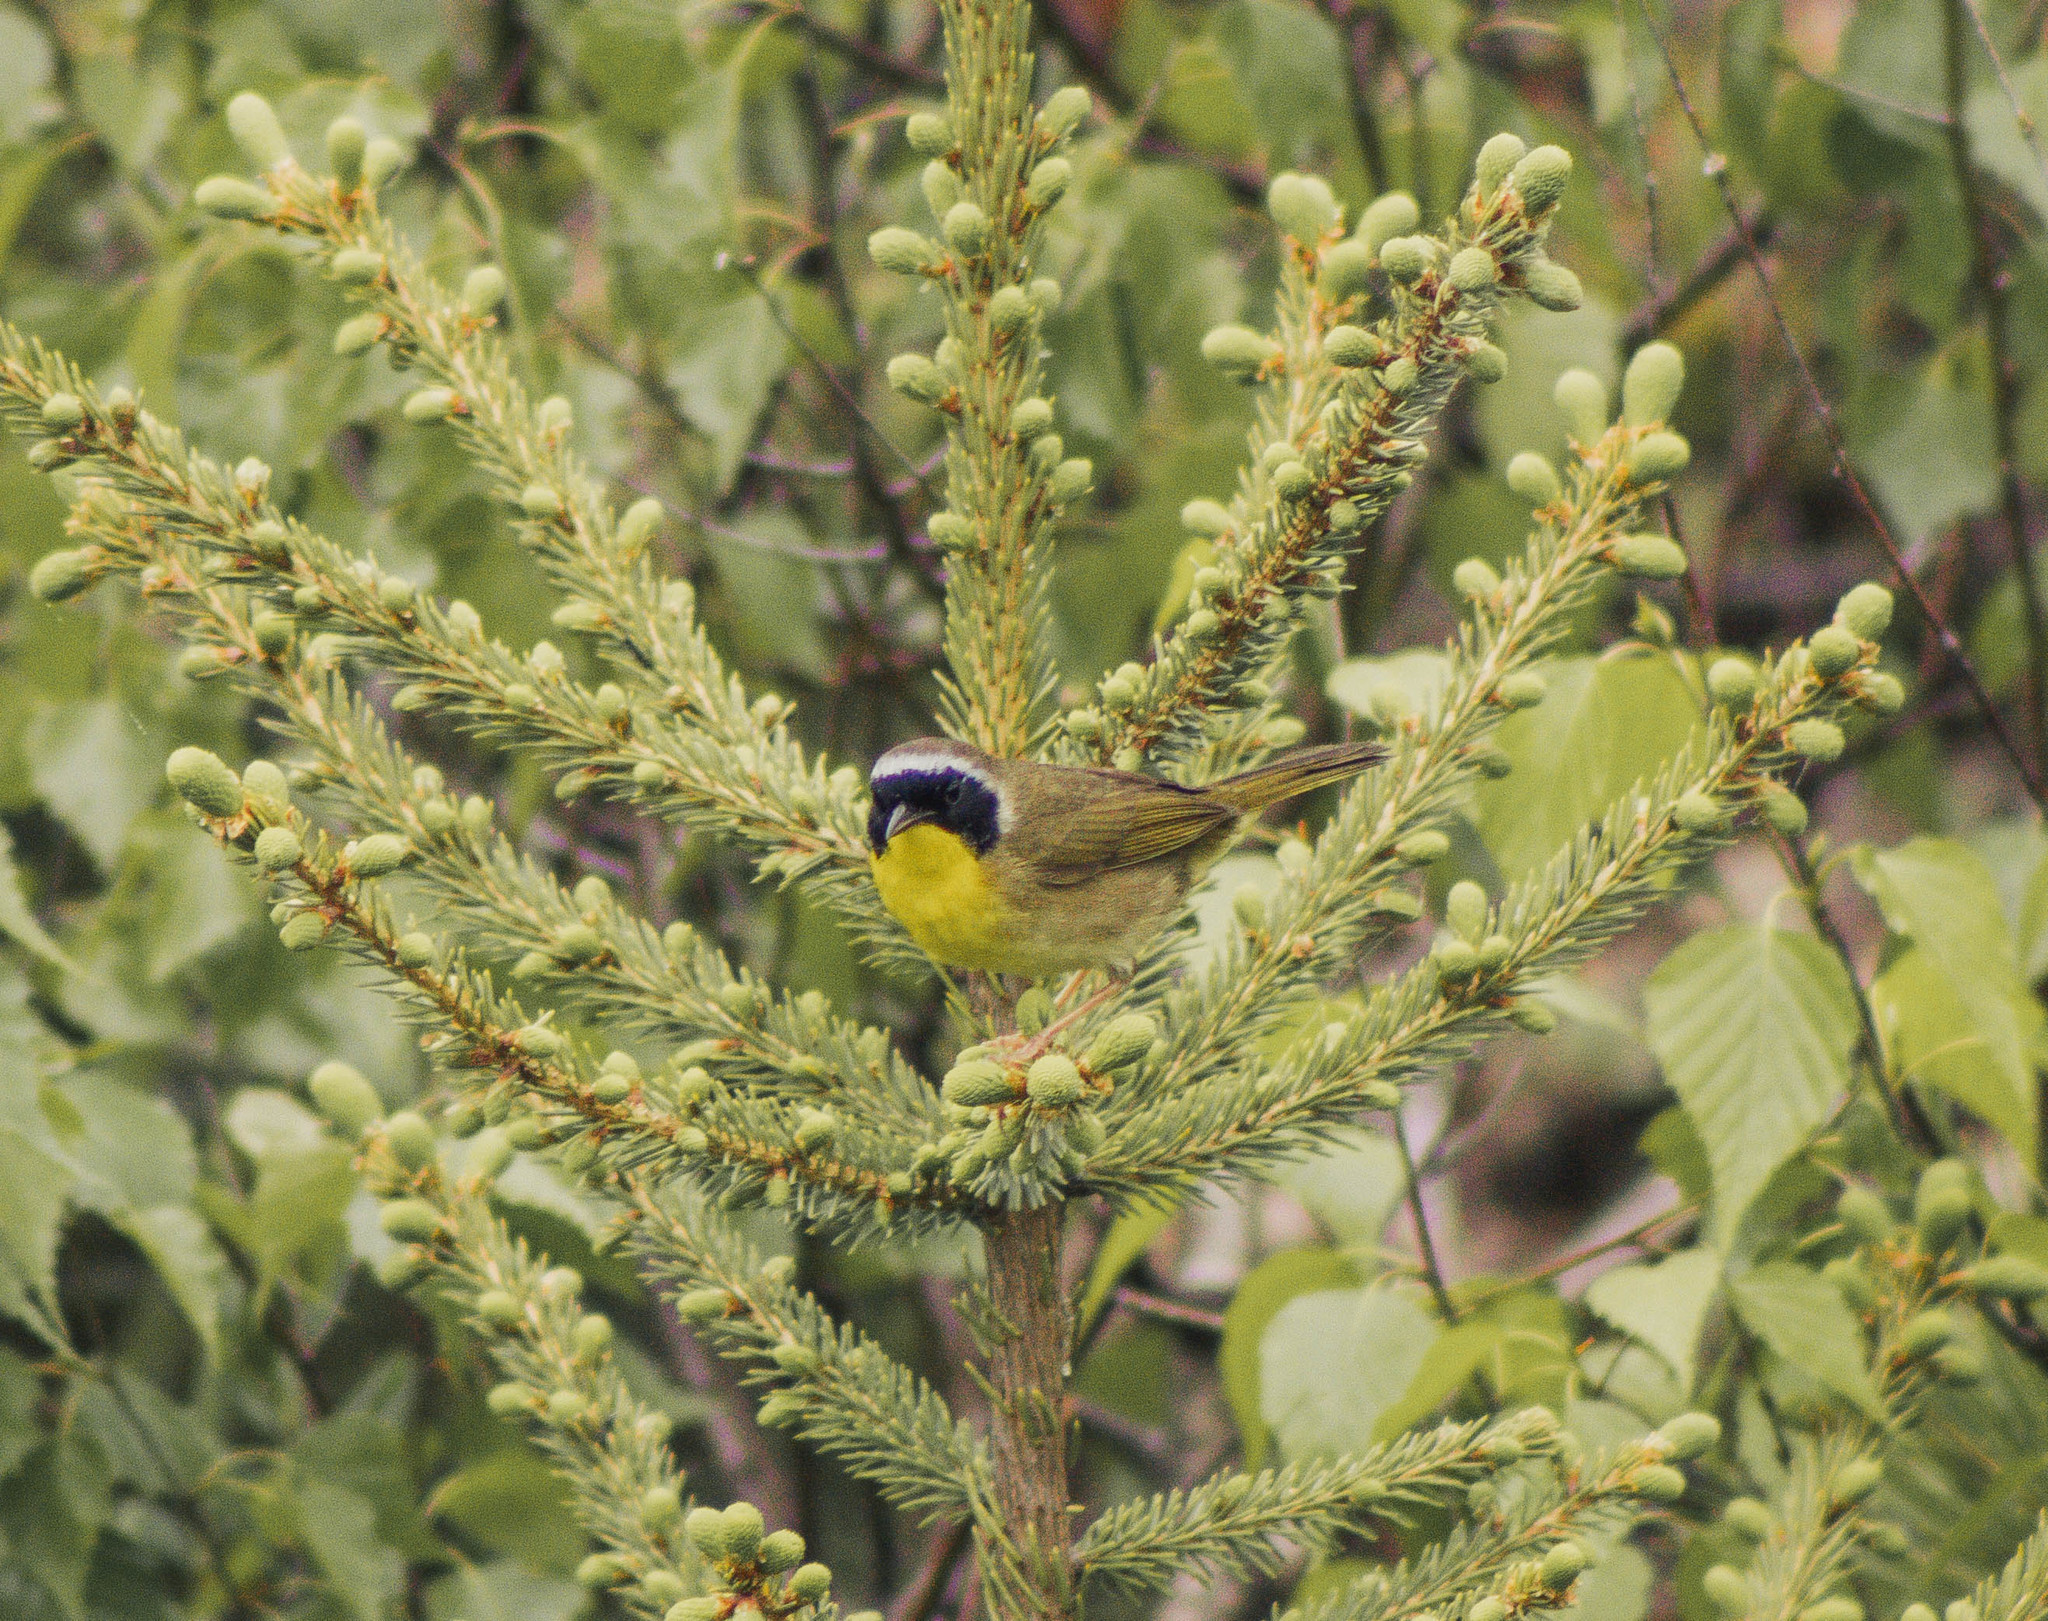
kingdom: Animalia
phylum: Chordata
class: Aves
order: Passeriformes
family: Parulidae
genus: Geothlypis
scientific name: Geothlypis trichas
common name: Common yellowthroat
